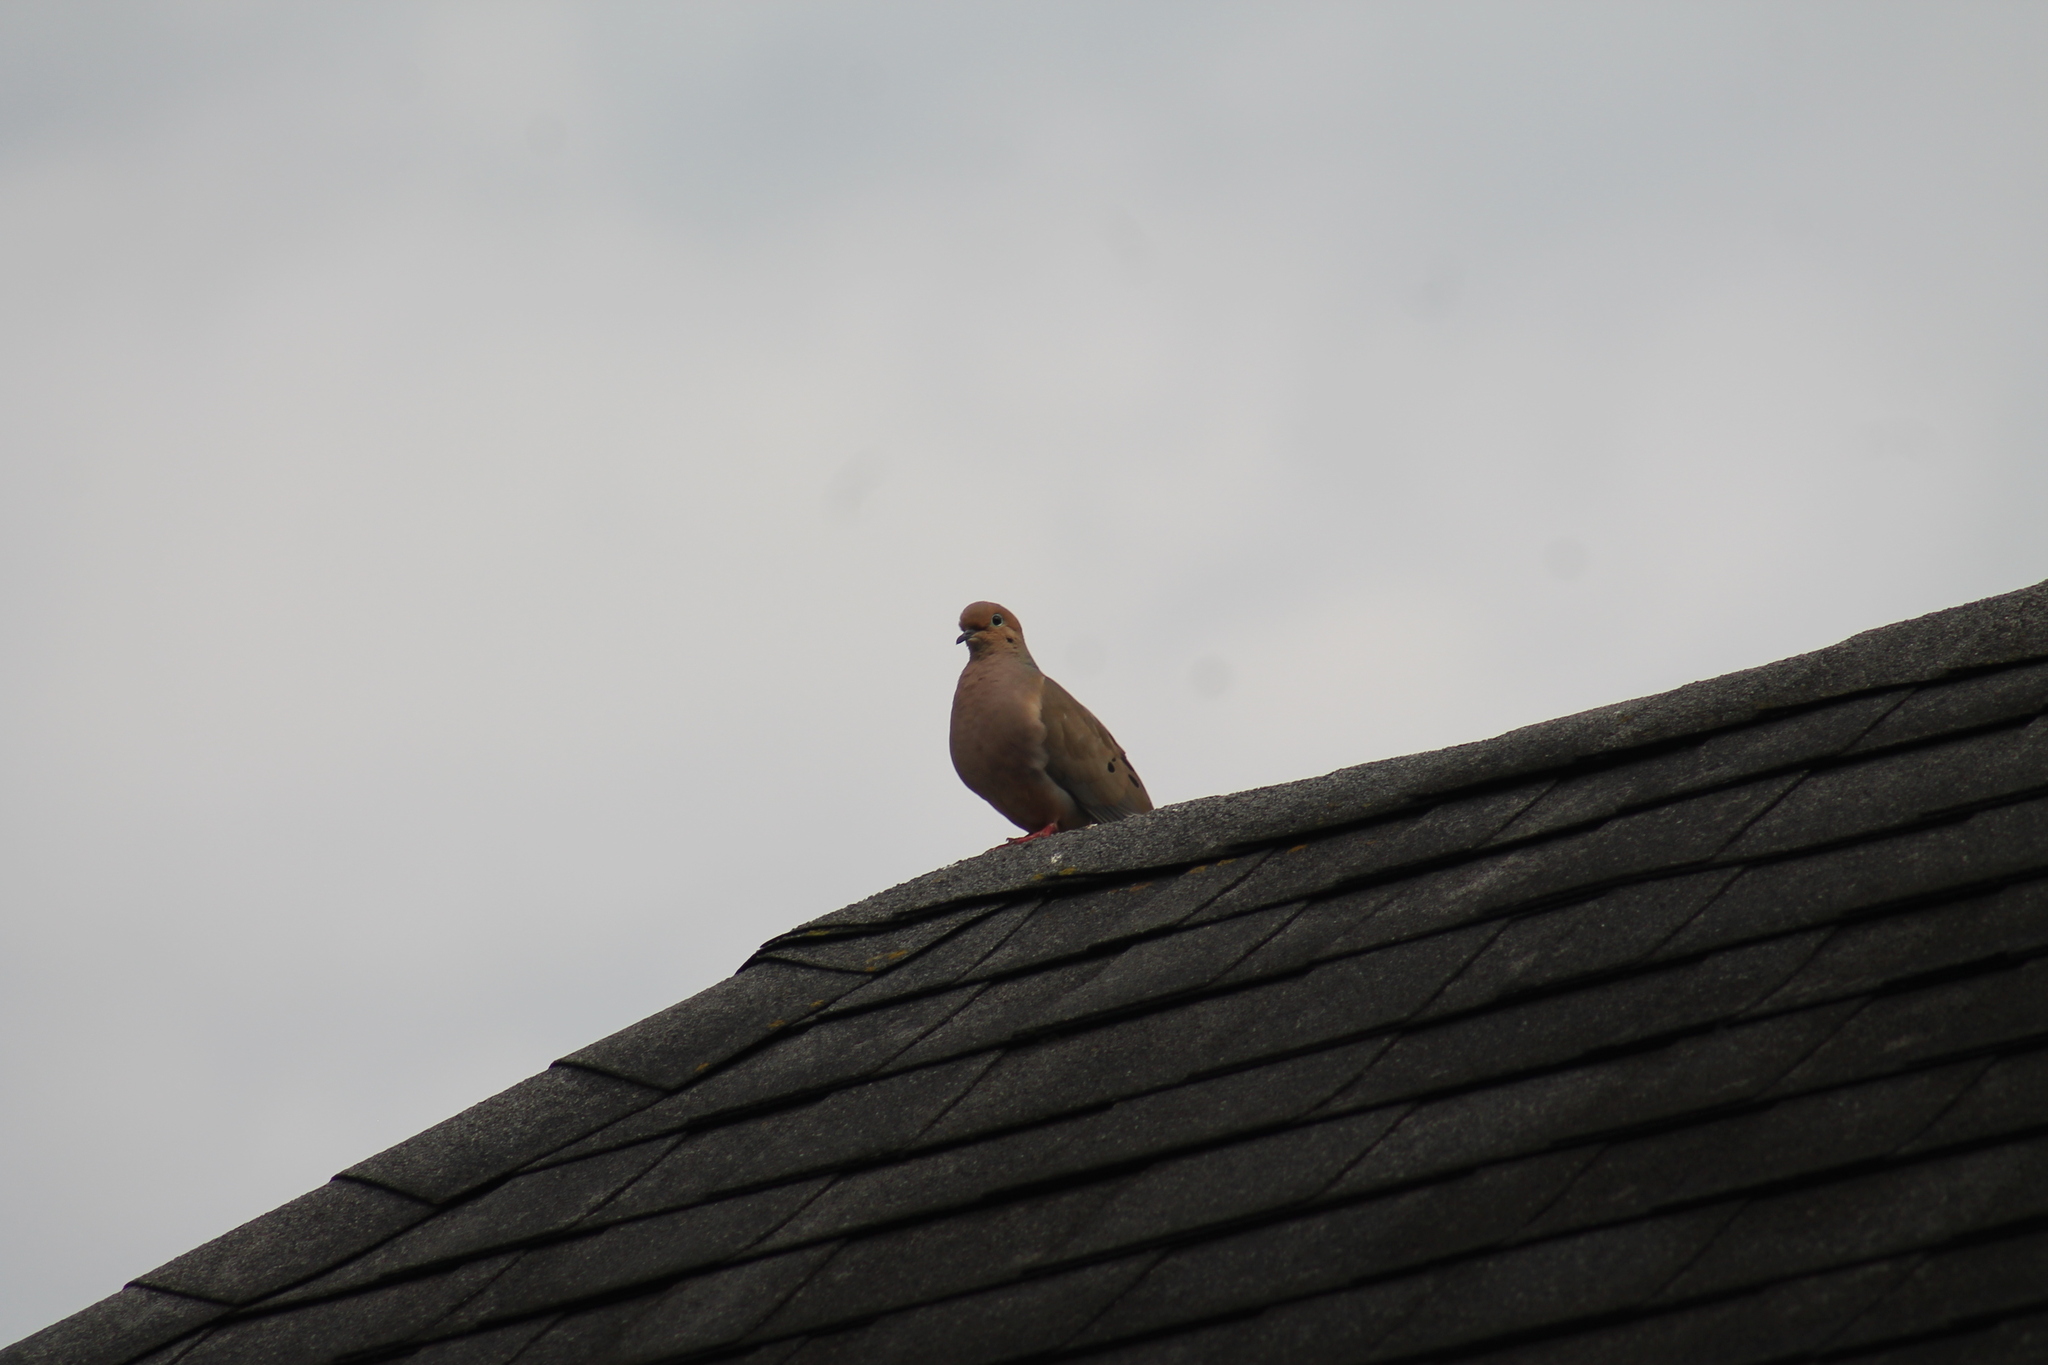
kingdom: Animalia
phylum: Chordata
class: Aves
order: Columbiformes
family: Columbidae
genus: Zenaida
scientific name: Zenaida macroura
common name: Mourning dove
